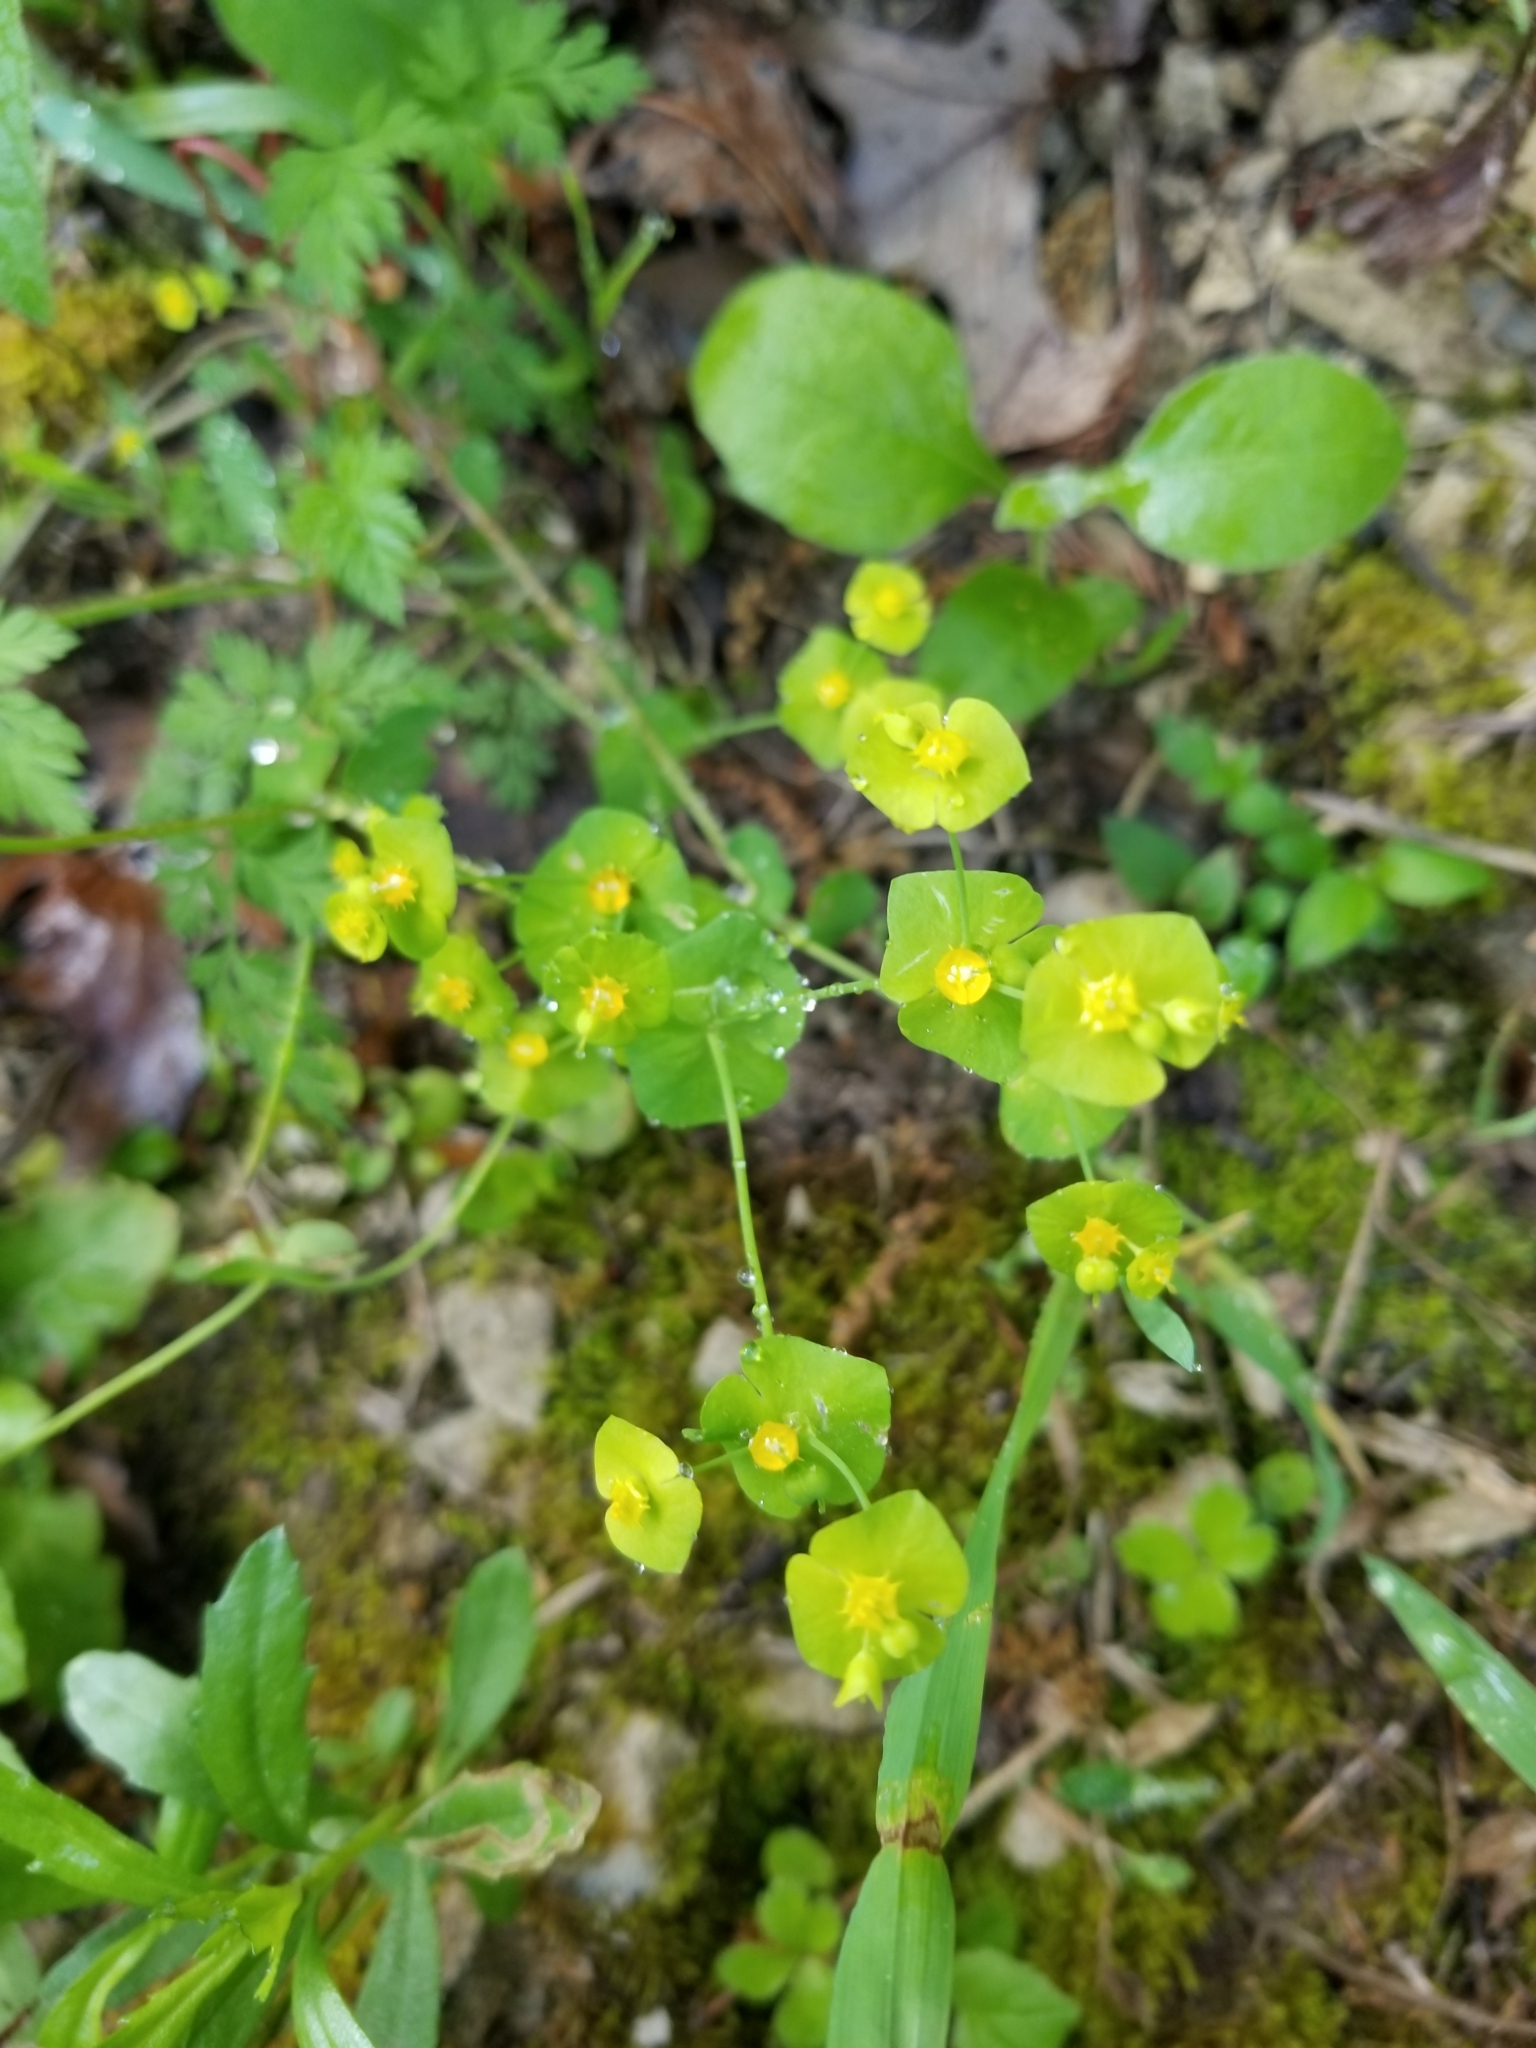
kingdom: Plantae
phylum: Tracheophyta
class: Magnoliopsida
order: Malpighiales
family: Euphorbiaceae
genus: Euphorbia
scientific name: Euphorbia roemeriana
